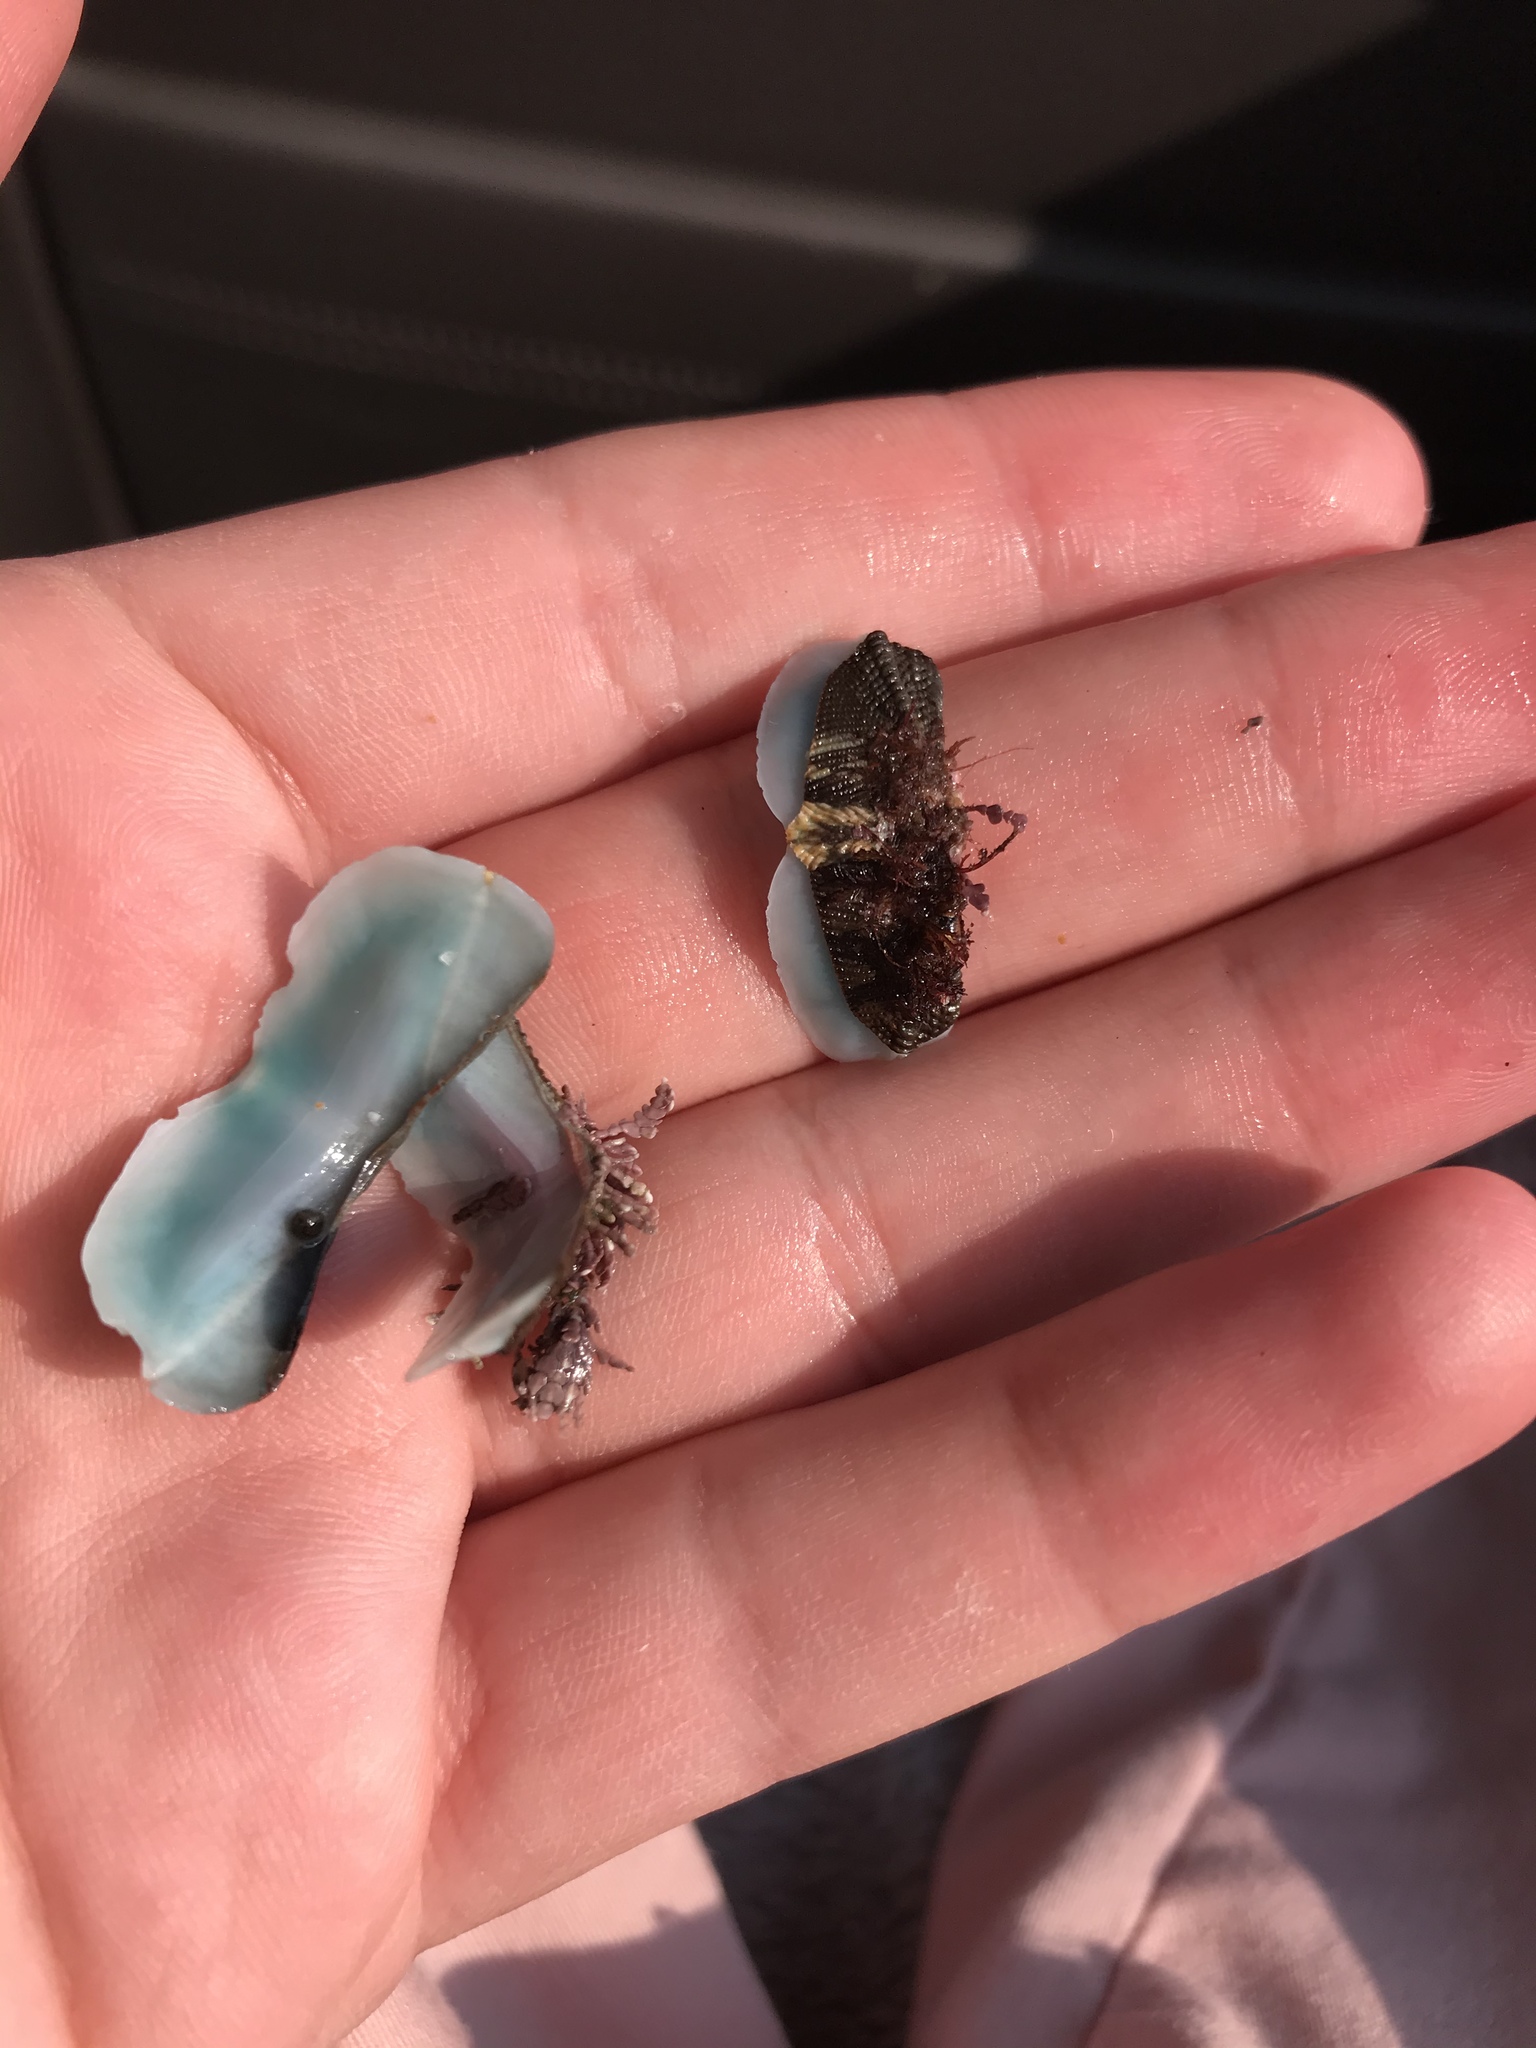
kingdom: Animalia
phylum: Mollusca
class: Polyplacophora
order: Chitonida
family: Mopaliidae
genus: Mopalia
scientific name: Mopalia muscosa
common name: Mossy chiton
